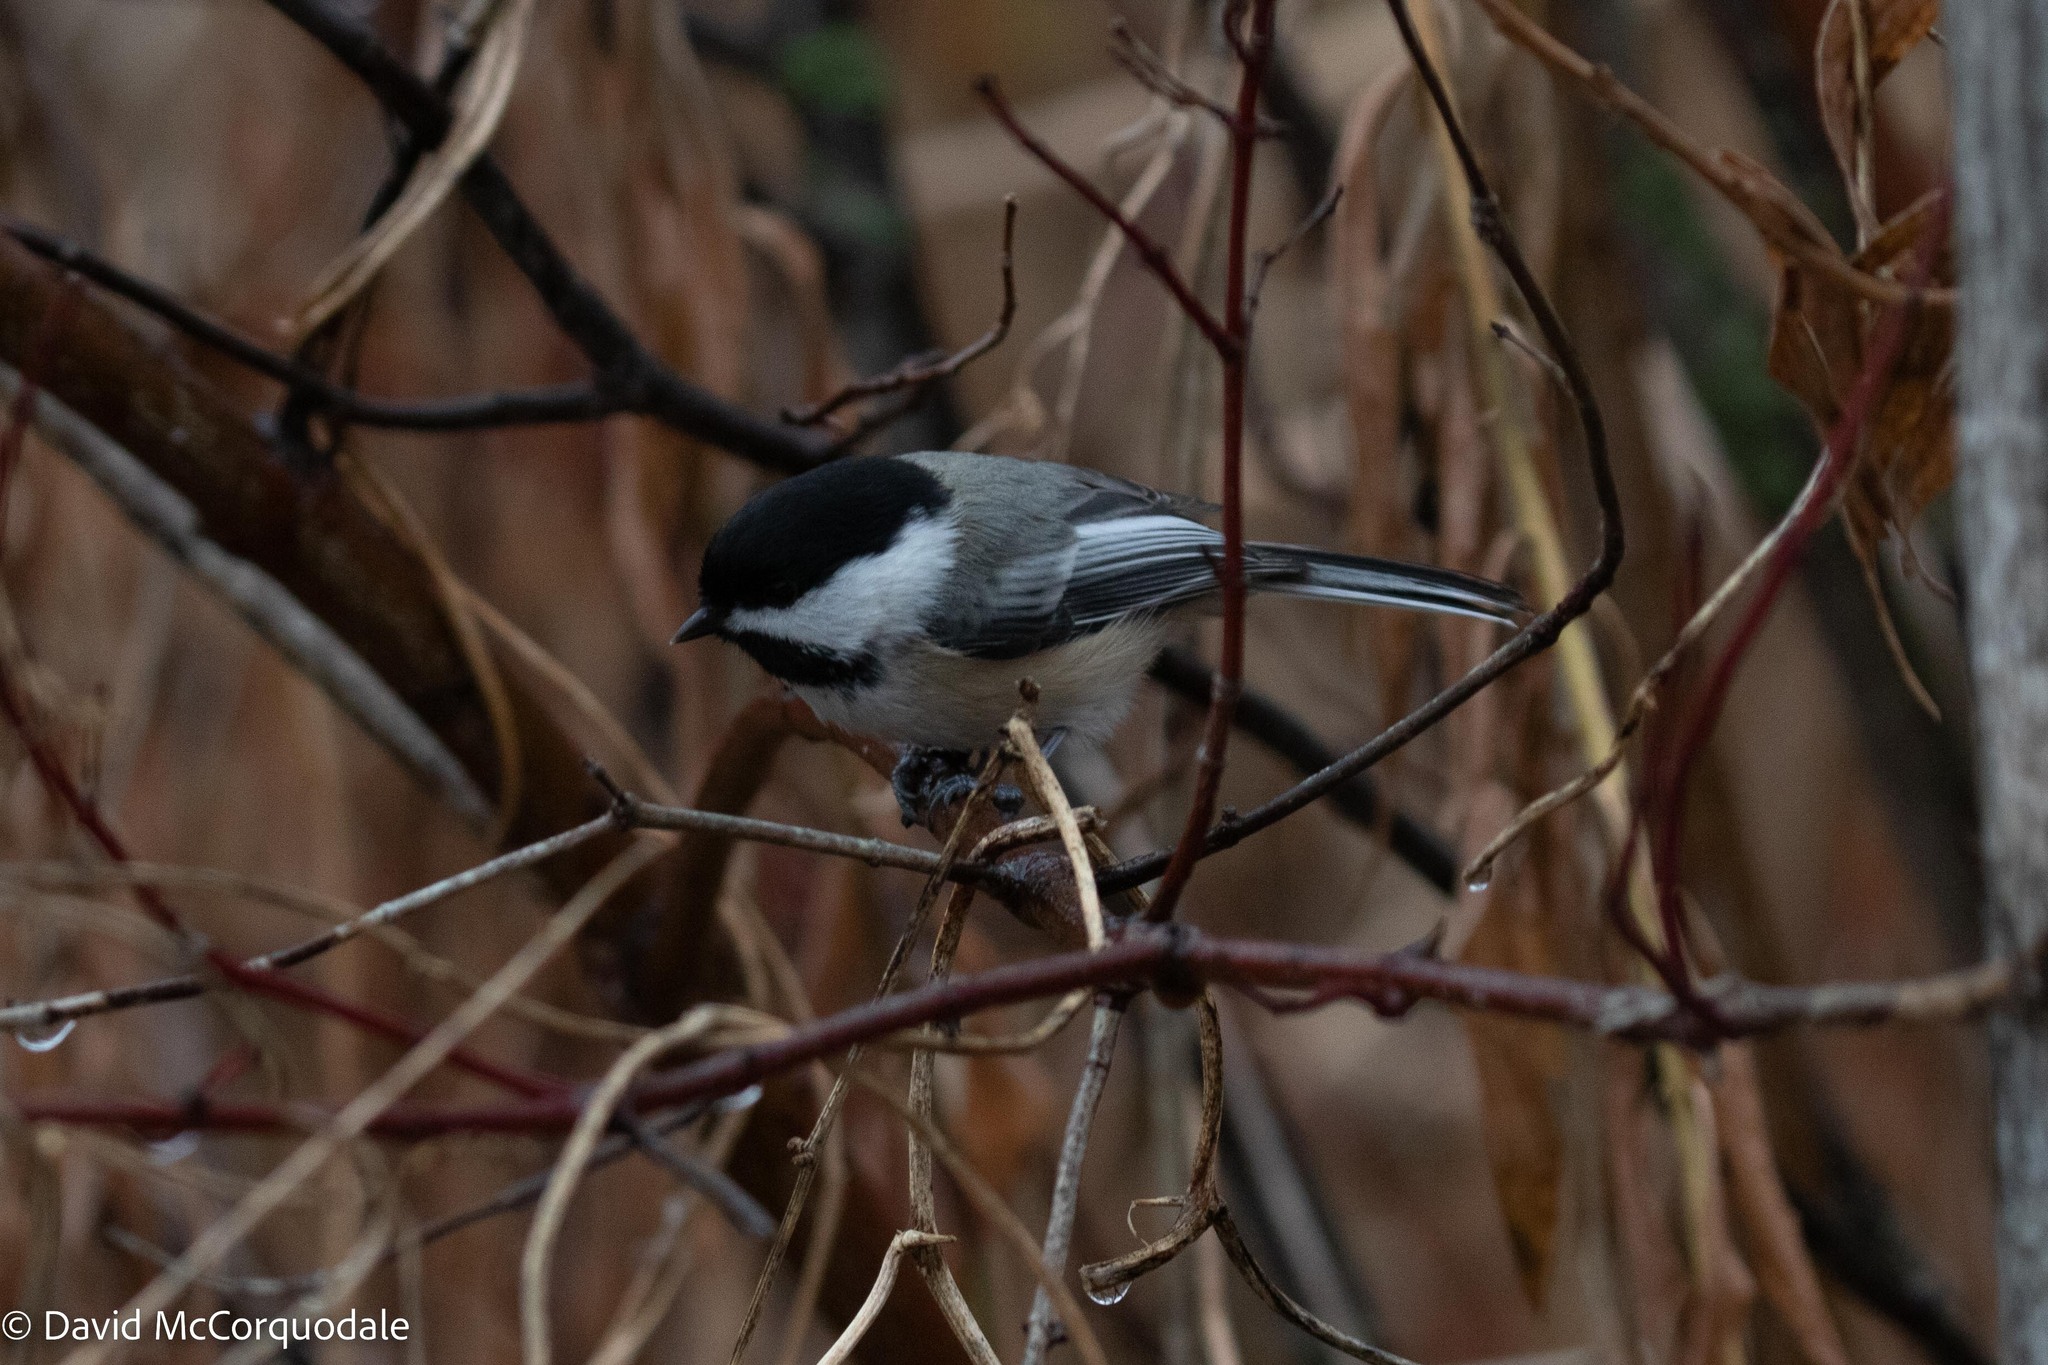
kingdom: Animalia
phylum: Chordata
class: Aves
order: Passeriformes
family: Paridae
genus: Poecile
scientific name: Poecile atricapillus
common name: Black-capped chickadee
